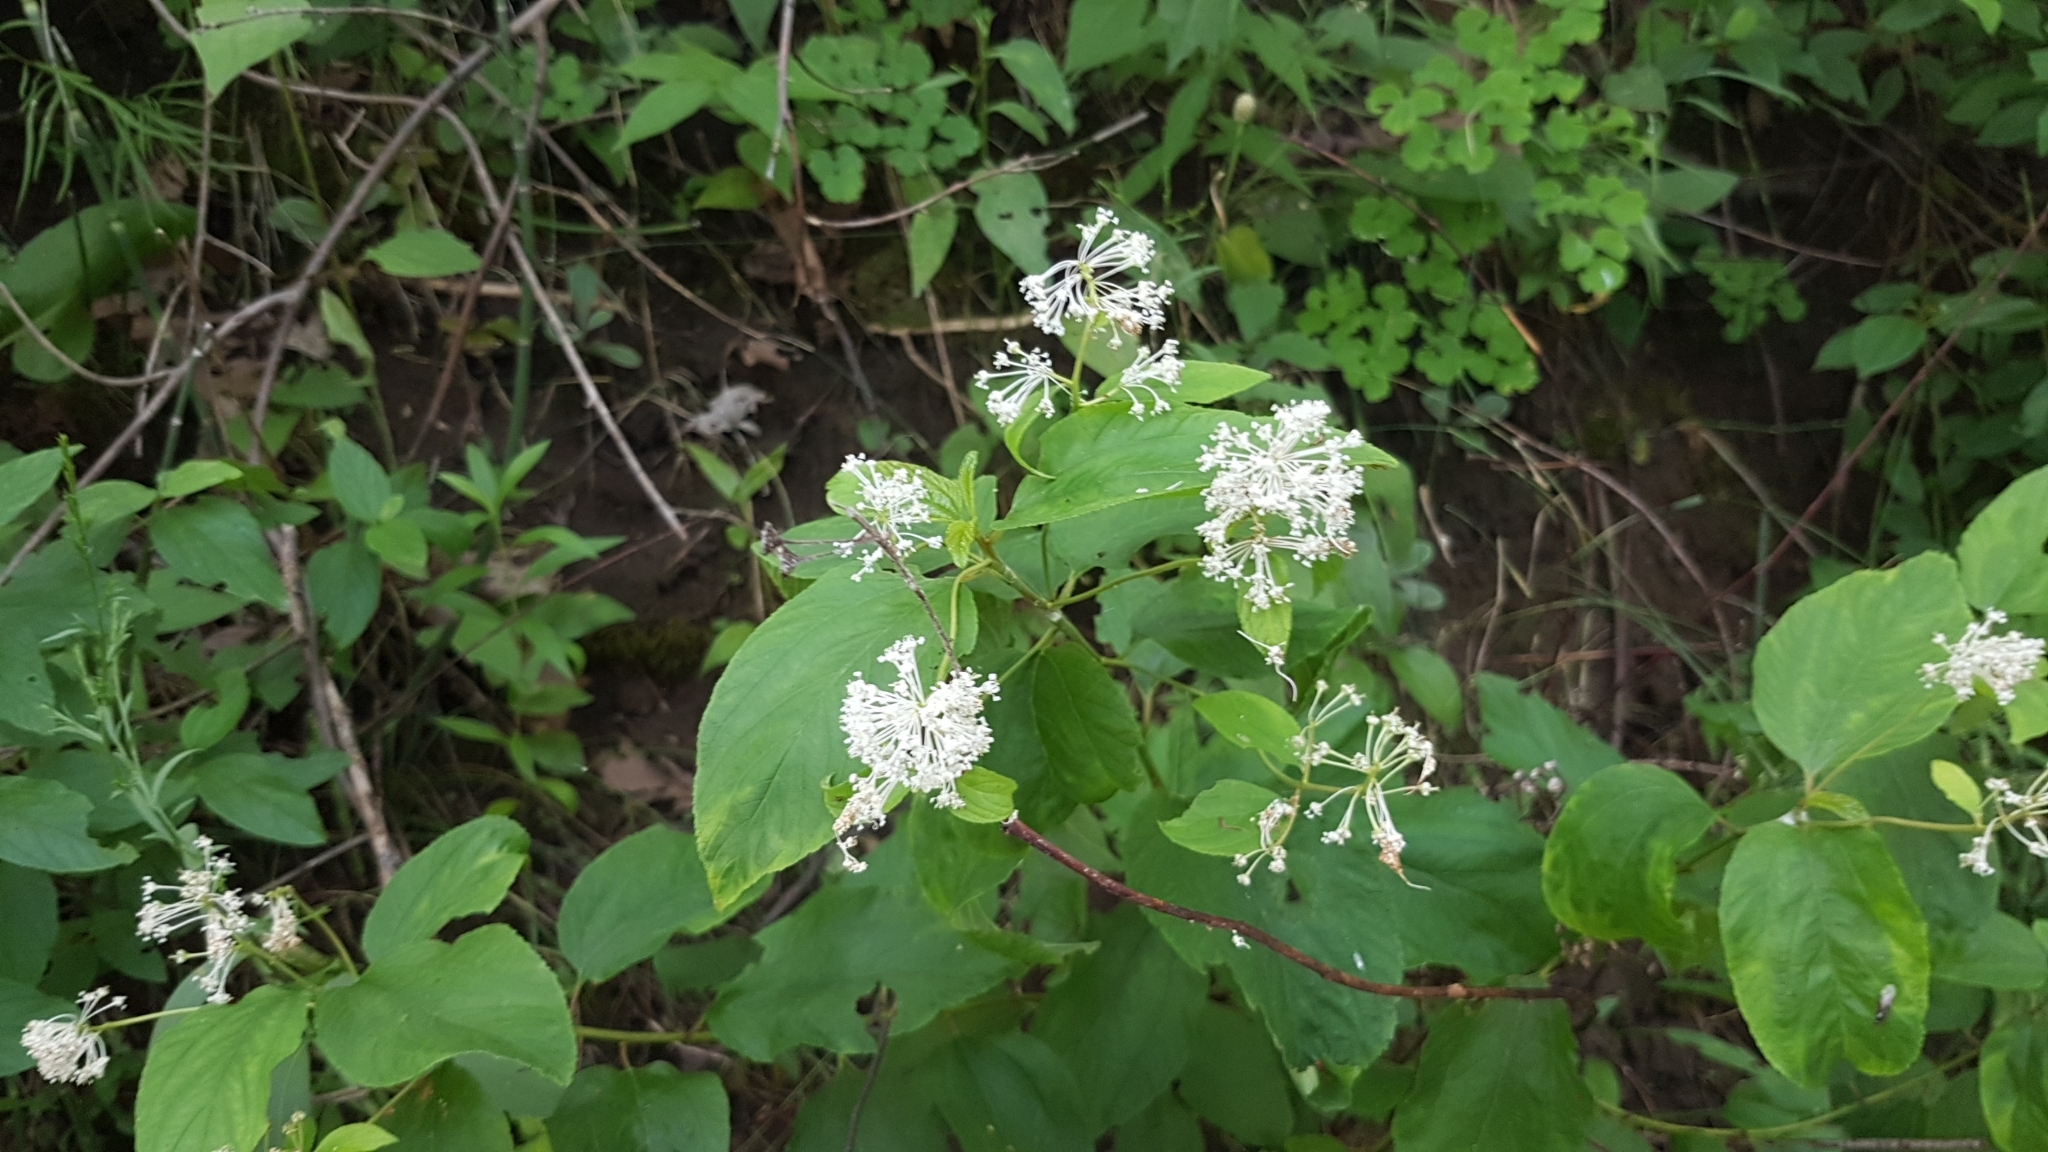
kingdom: Plantae
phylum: Tracheophyta
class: Magnoliopsida
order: Rosales
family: Rhamnaceae
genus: Ceanothus
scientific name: Ceanothus americanus
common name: Redroot
